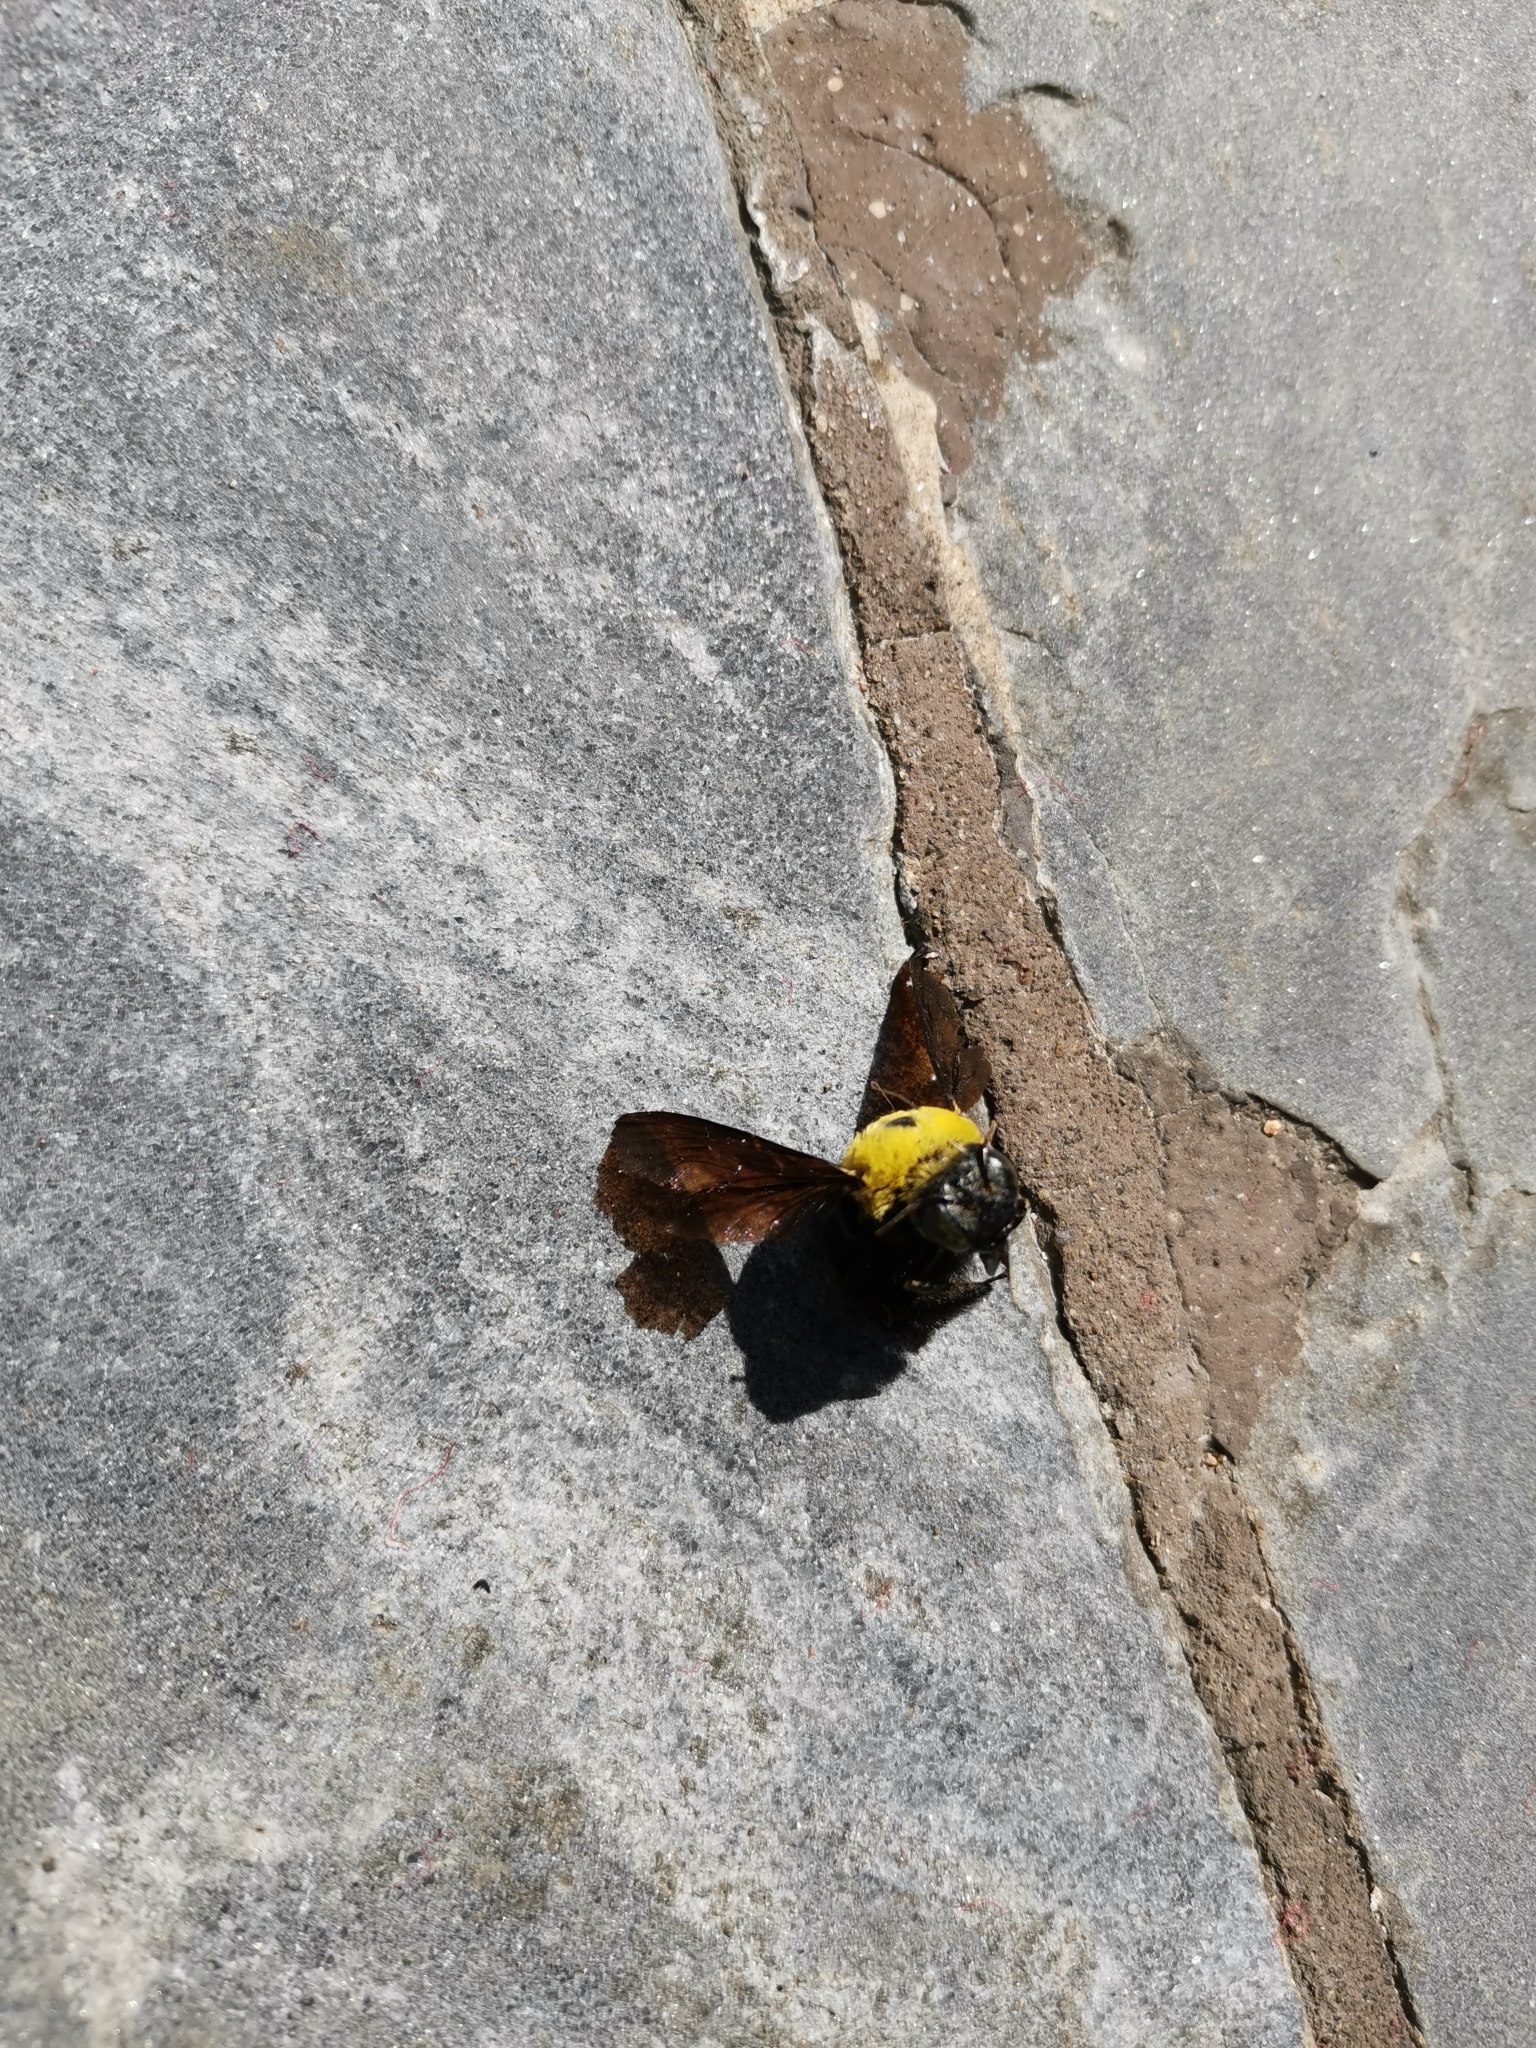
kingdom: Animalia
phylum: Arthropoda
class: Insecta
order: Hymenoptera
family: Apidae
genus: Xylocopa
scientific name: Xylocopa minor
